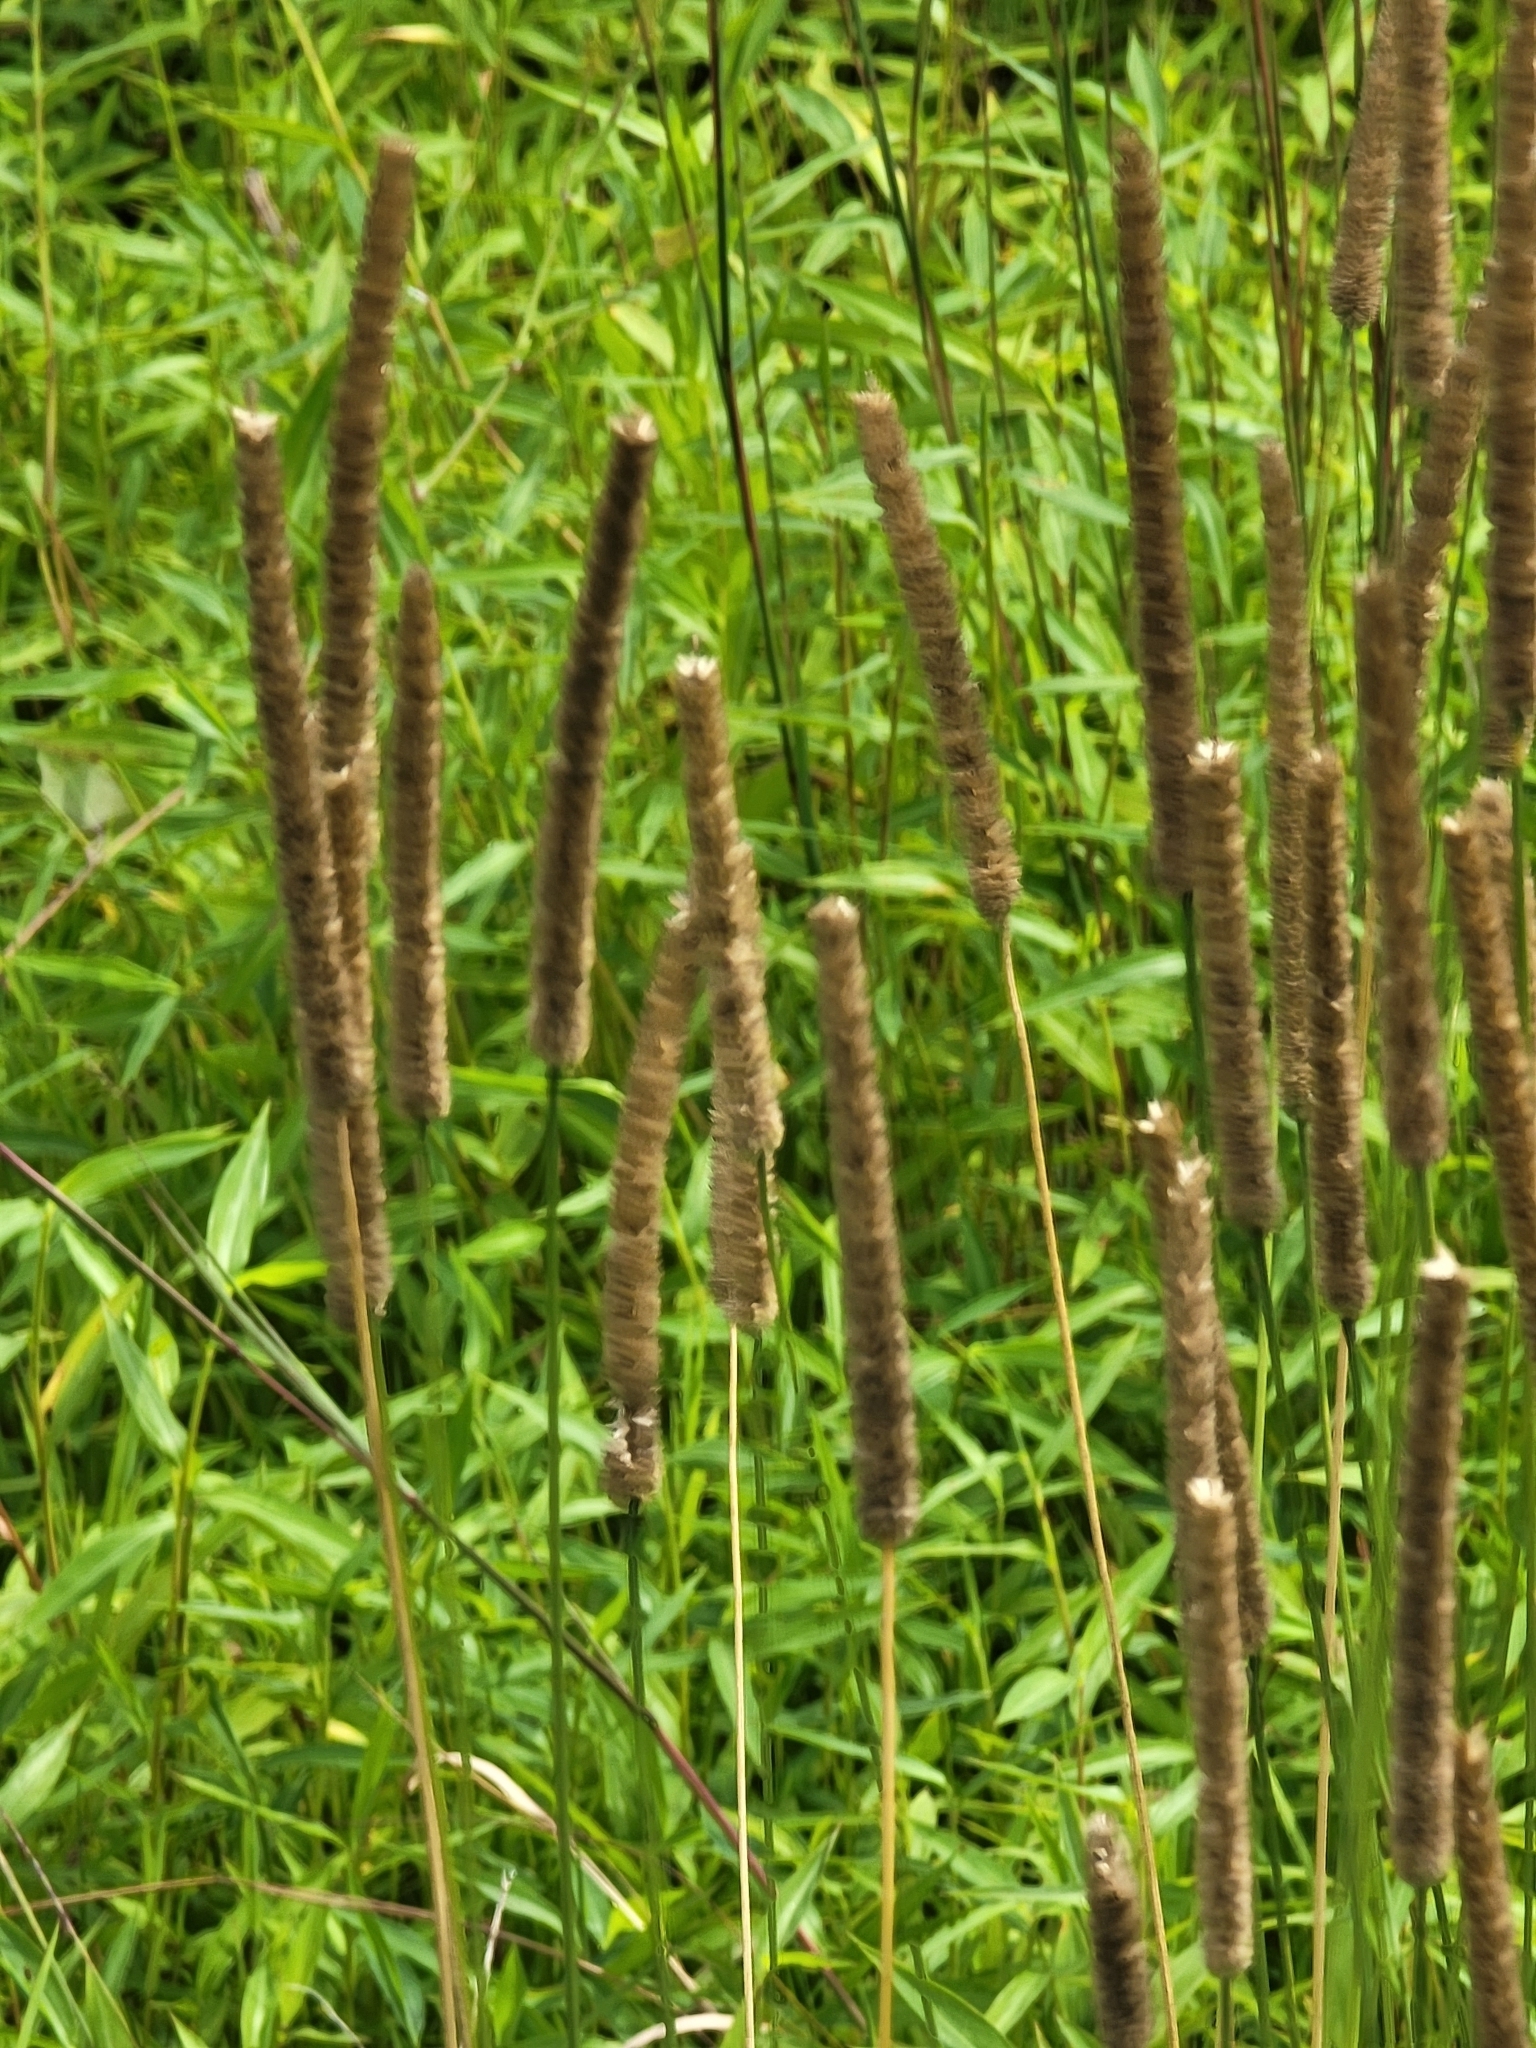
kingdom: Plantae
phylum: Tracheophyta
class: Liliopsida
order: Poales
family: Poaceae
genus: Phleum
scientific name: Phleum pratense
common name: Timothy grass
